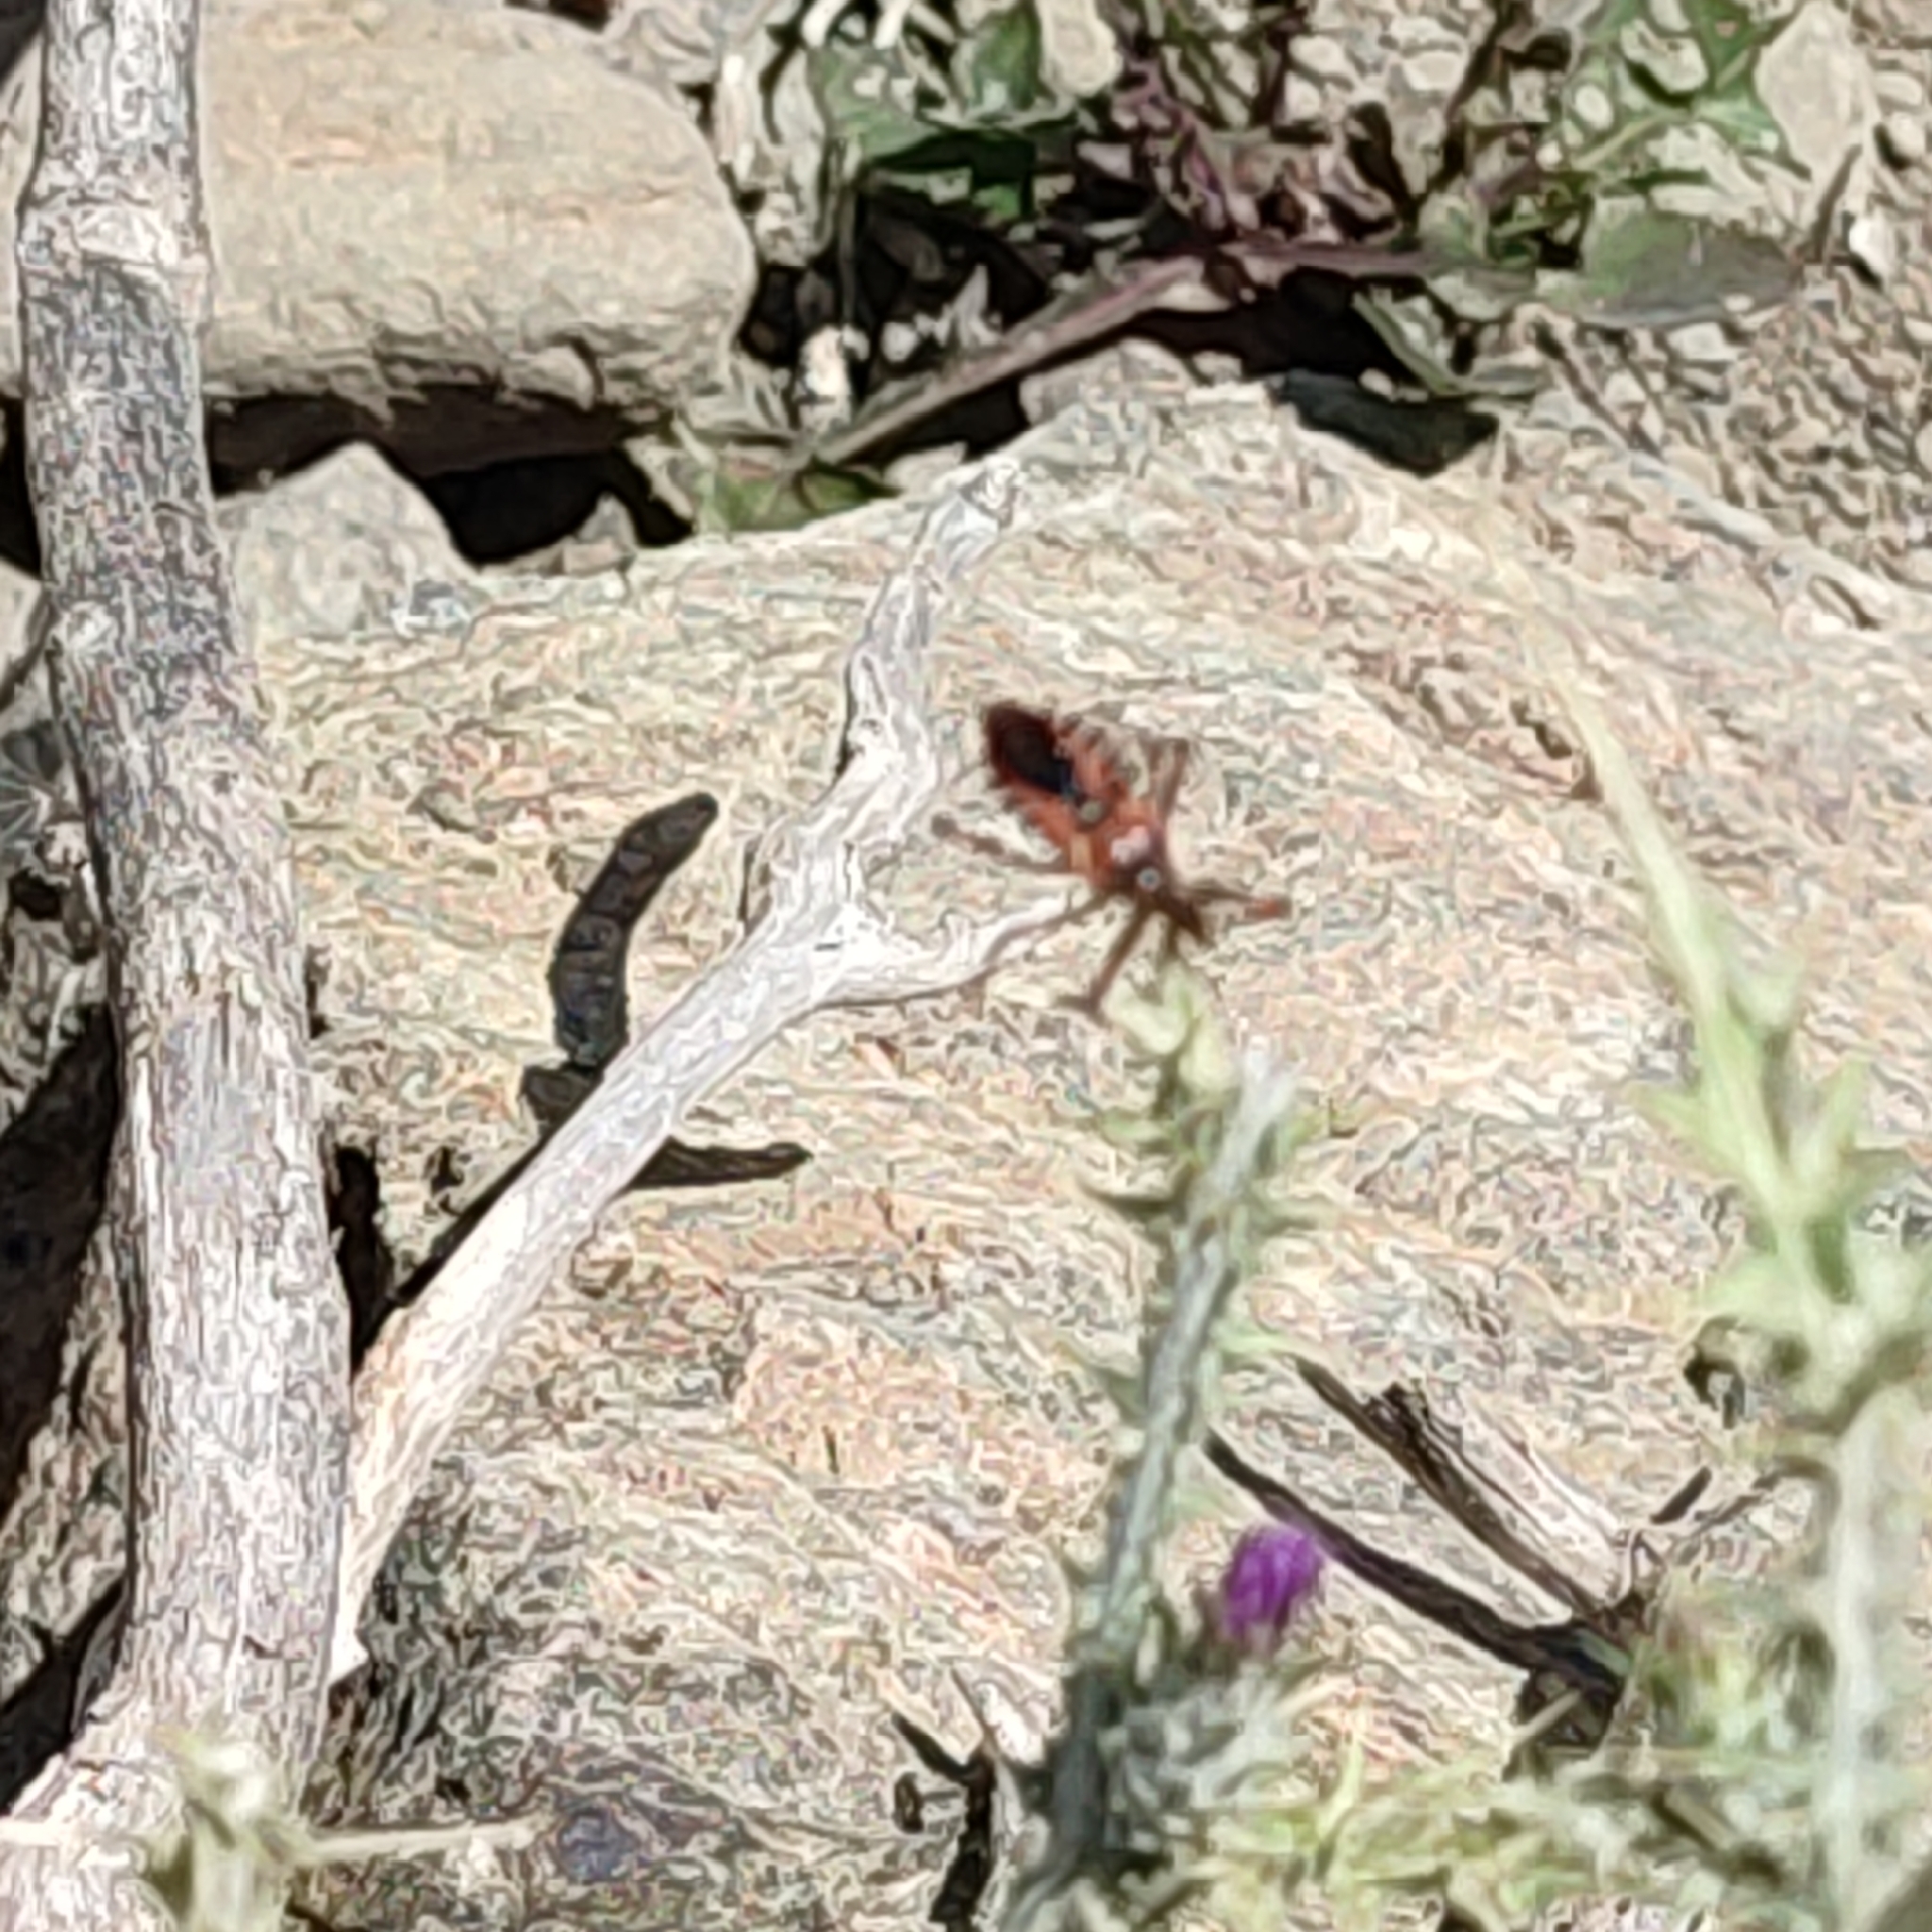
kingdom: Animalia
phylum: Arthropoda
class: Insecta
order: Hemiptera
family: Reduviidae
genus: Rhynocoris
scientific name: Rhynocoris
